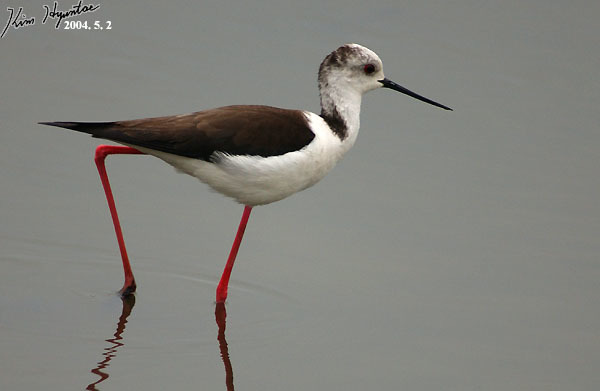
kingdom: Animalia
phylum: Chordata
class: Aves
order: Charadriiformes
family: Recurvirostridae
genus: Himantopus
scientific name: Himantopus himantopus
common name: Black-winged stilt
